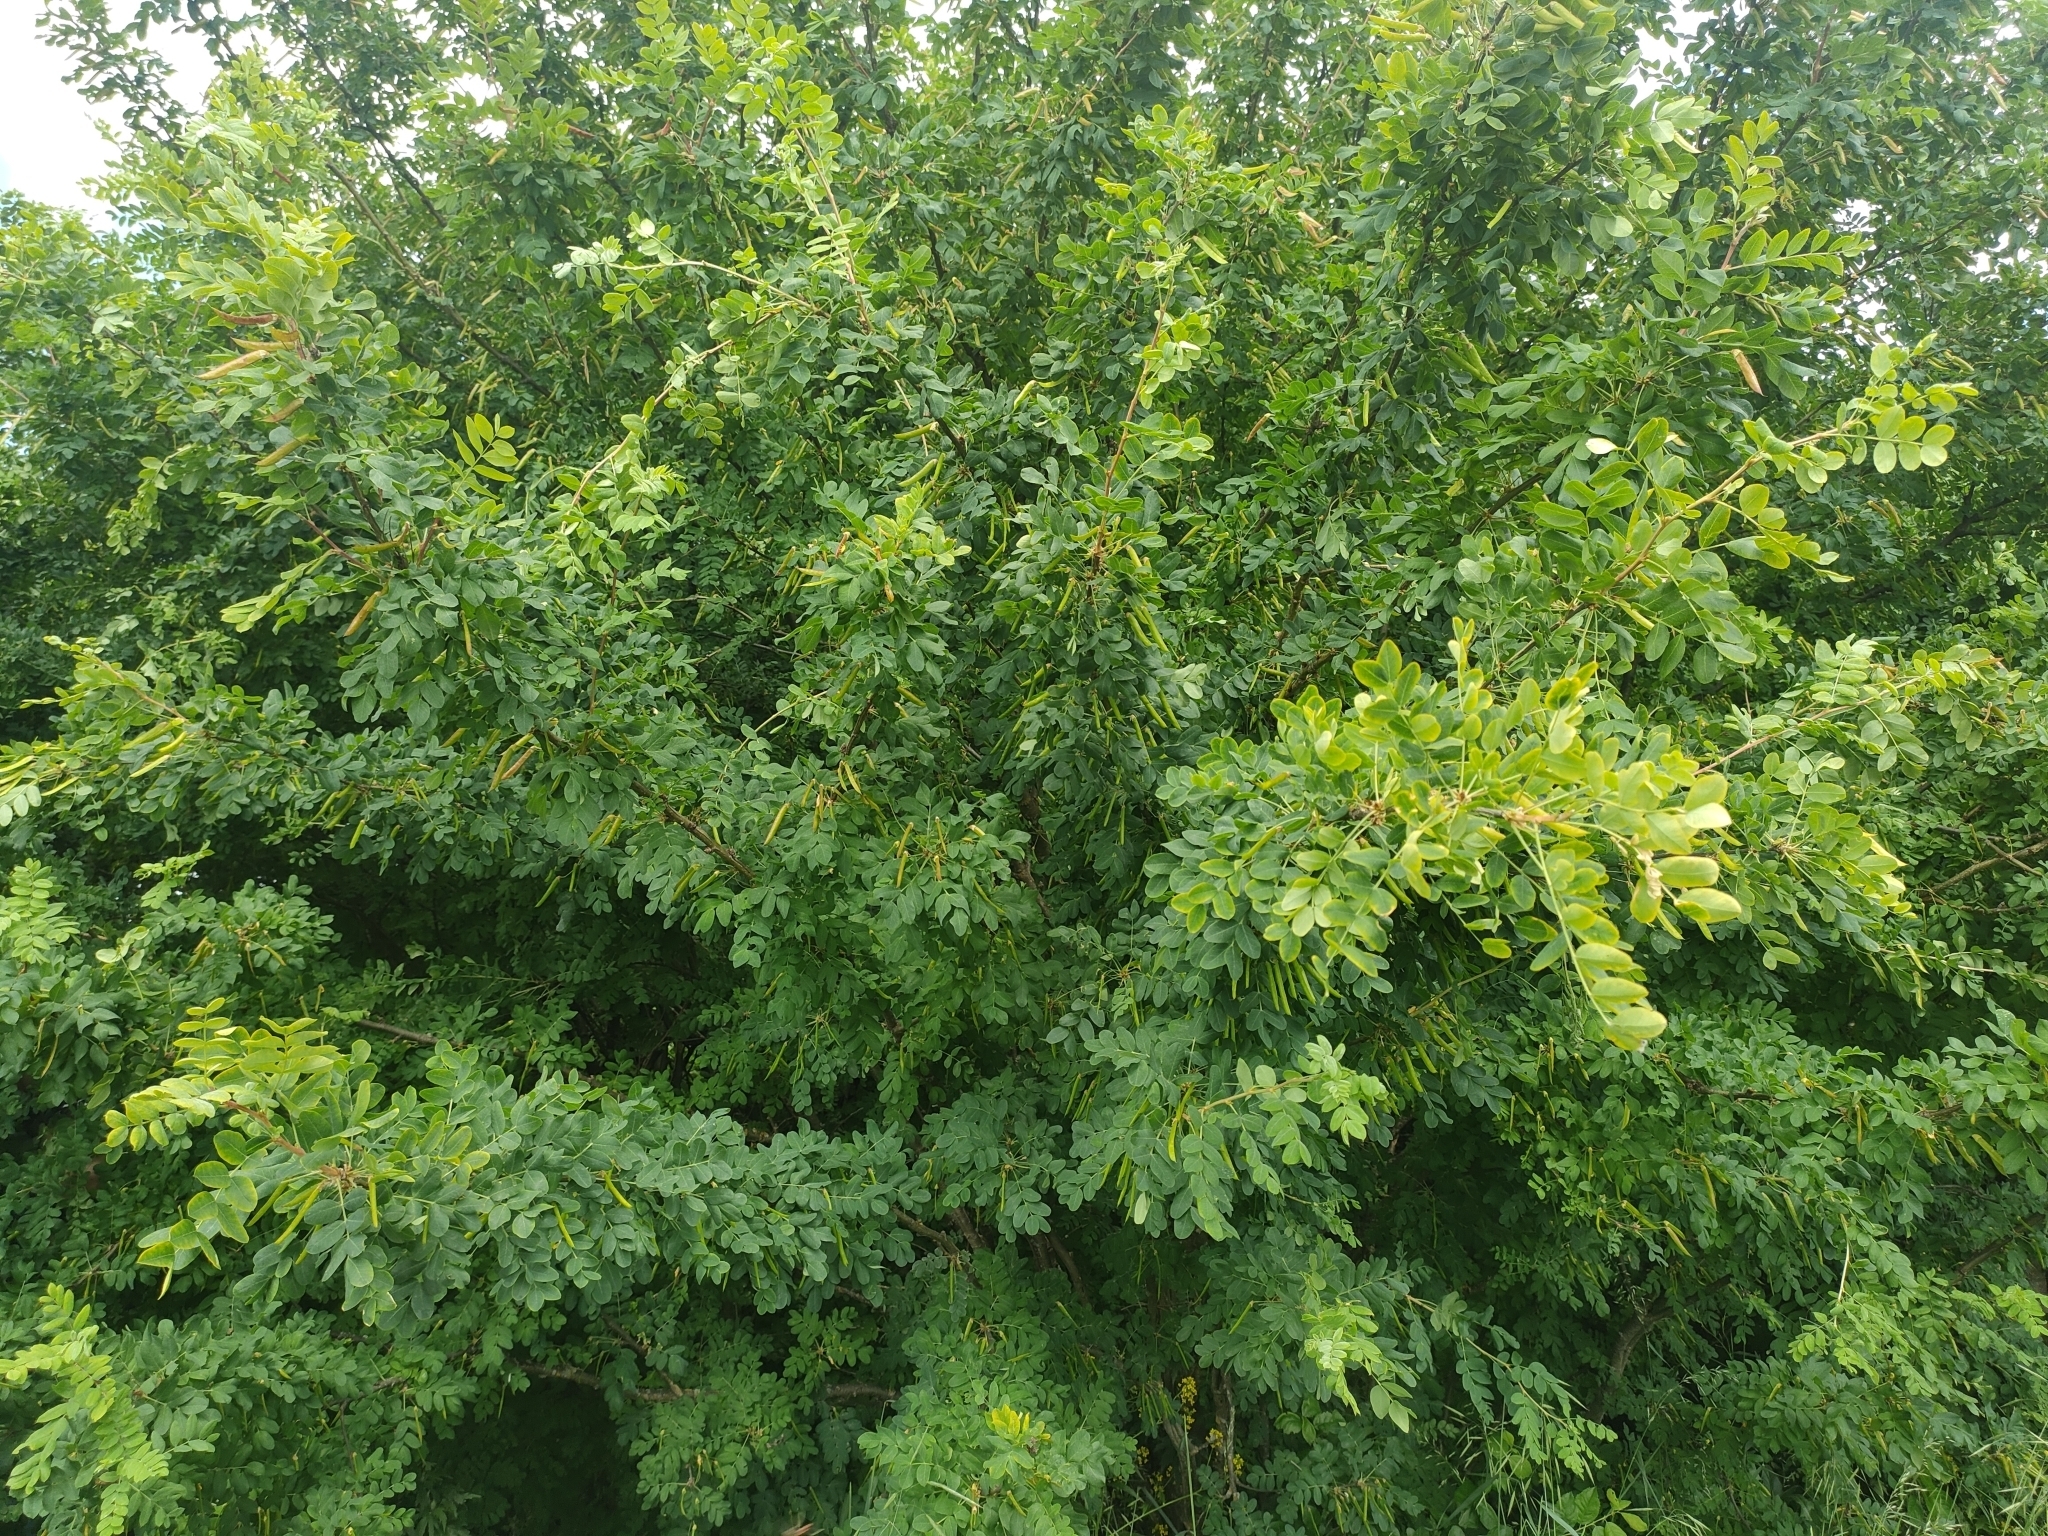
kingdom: Plantae
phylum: Tracheophyta
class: Magnoliopsida
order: Fabales
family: Fabaceae
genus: Caragana
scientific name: Caragana arborescens
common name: Siberian peashrub
